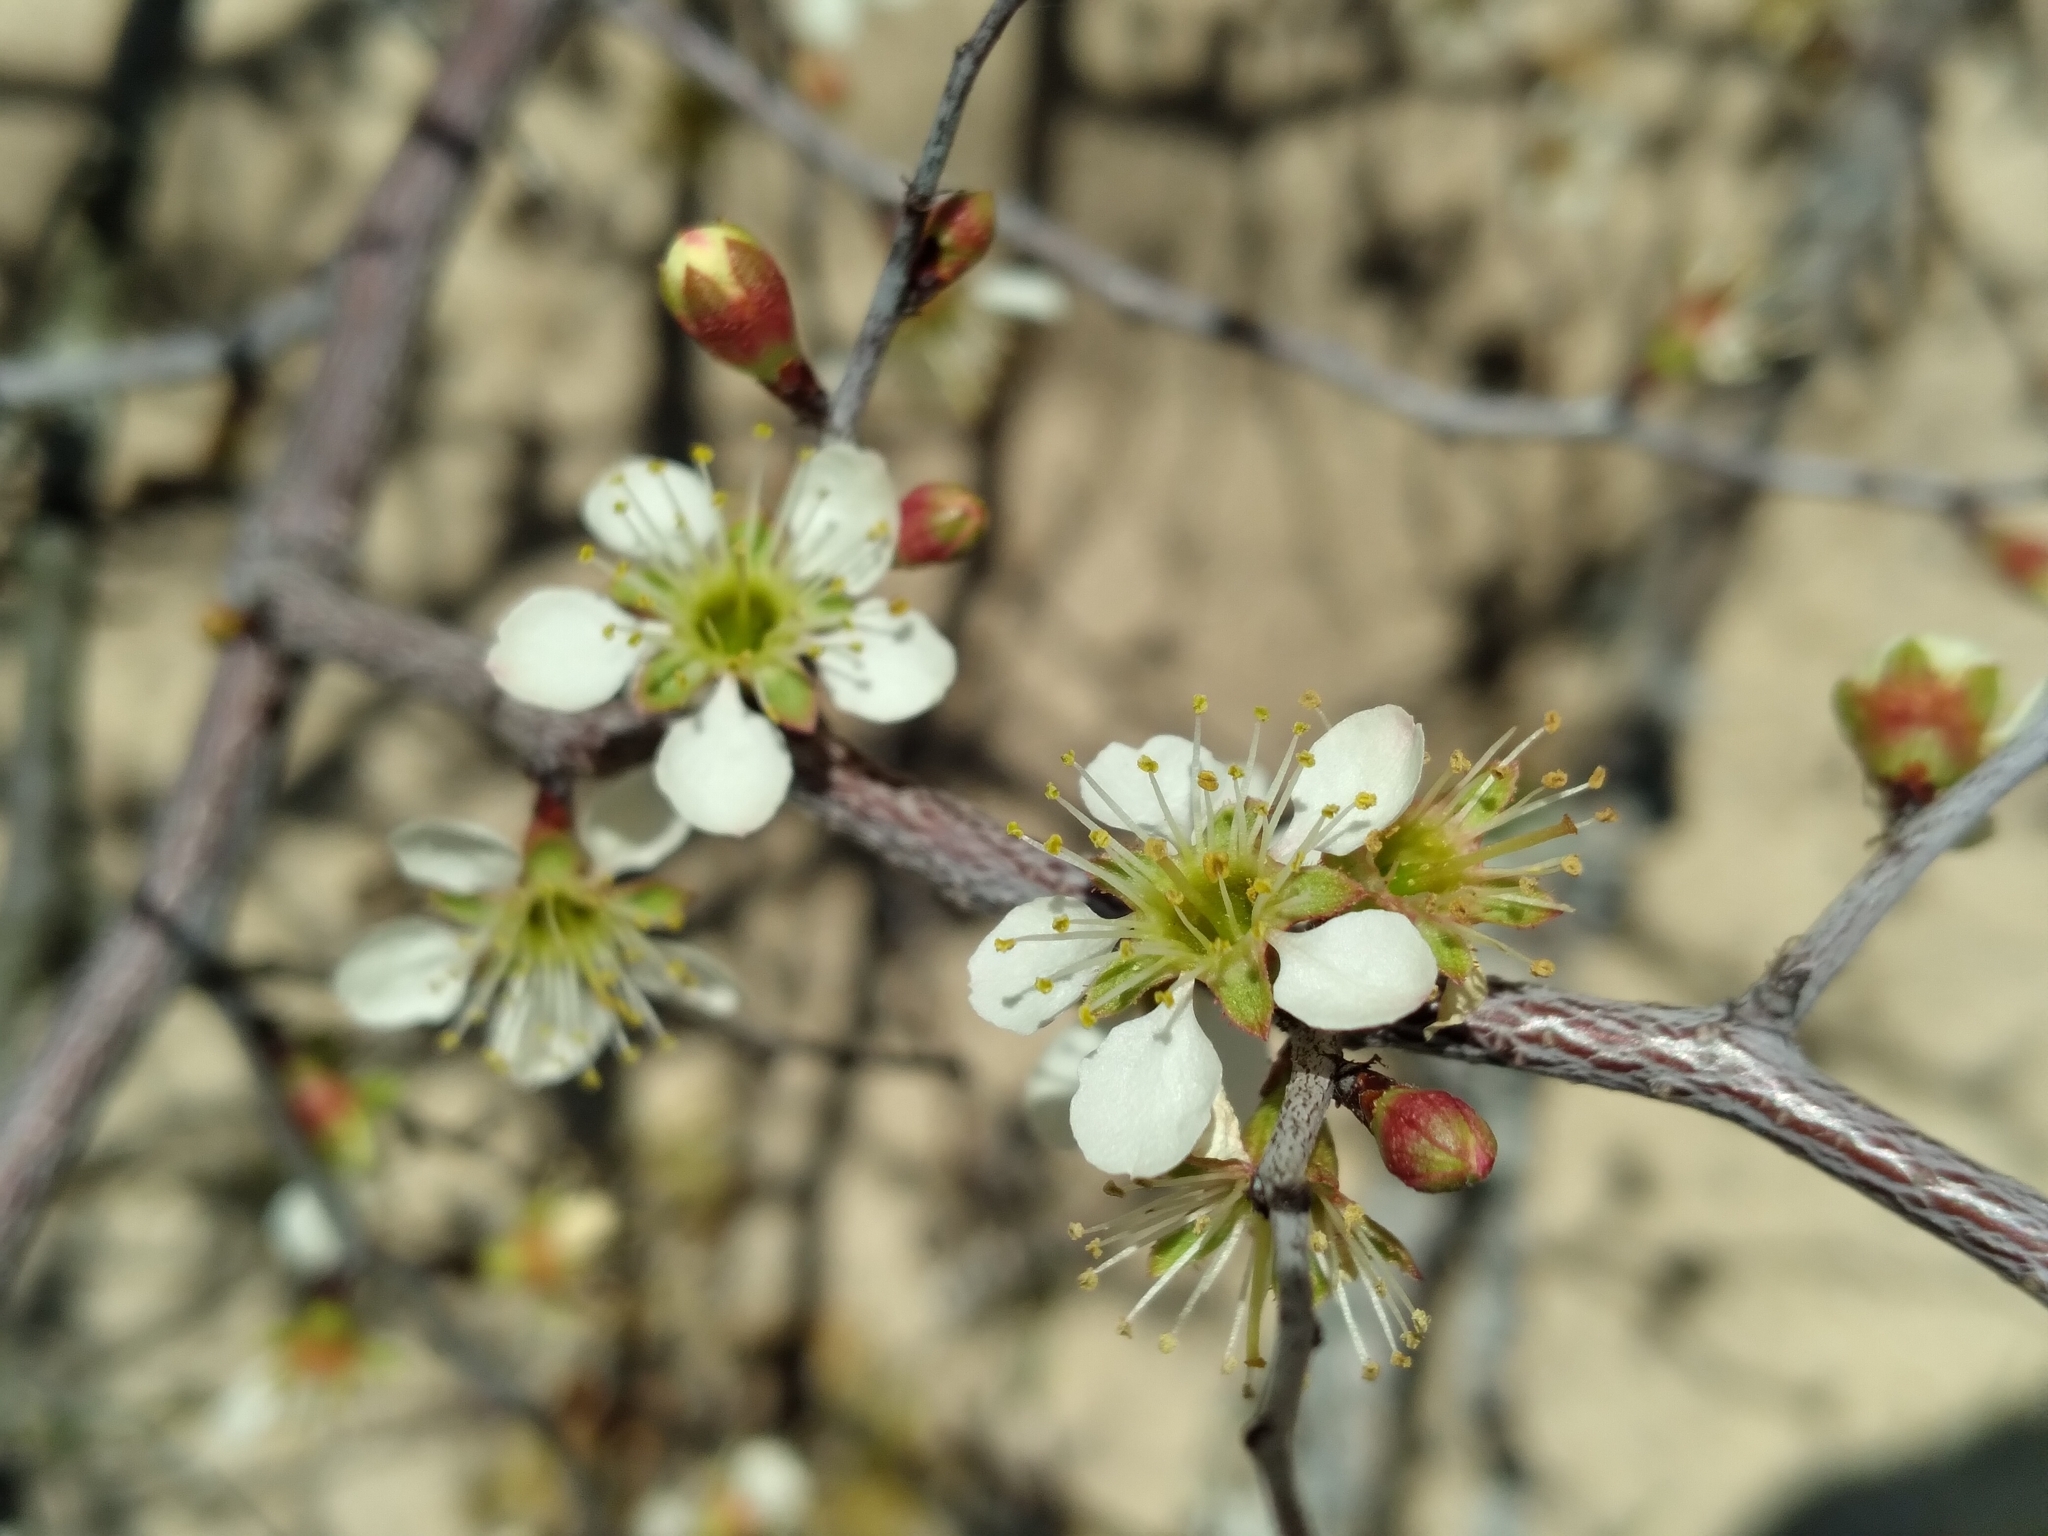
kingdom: Plantae
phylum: Tracheophyta
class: Magnoliopsida
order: Rosales
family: Rosaceae
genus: Prunus
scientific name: Prunus geniculata
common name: Scrub plum
